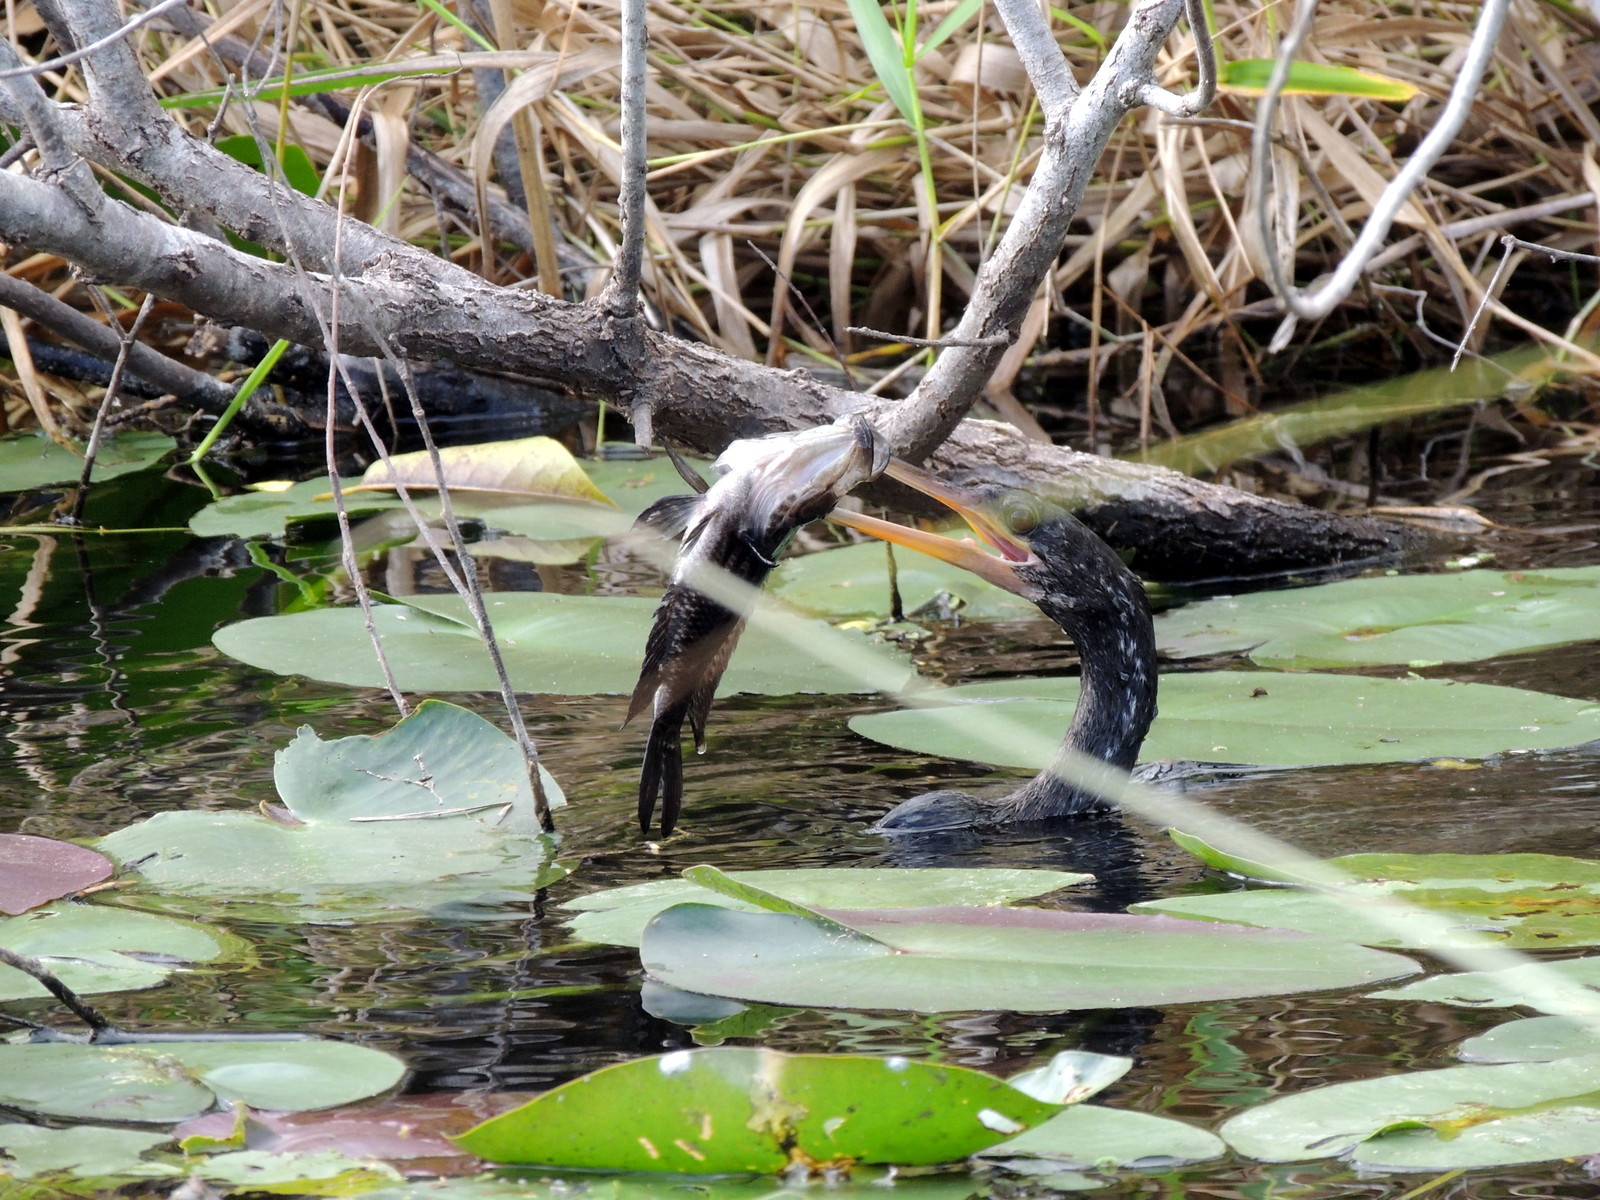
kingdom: Animalia
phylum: Chordata
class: Aves
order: Suliformes
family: Anhingidae
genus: Anhinga
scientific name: Anhinga anhinga
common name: Anhinga
